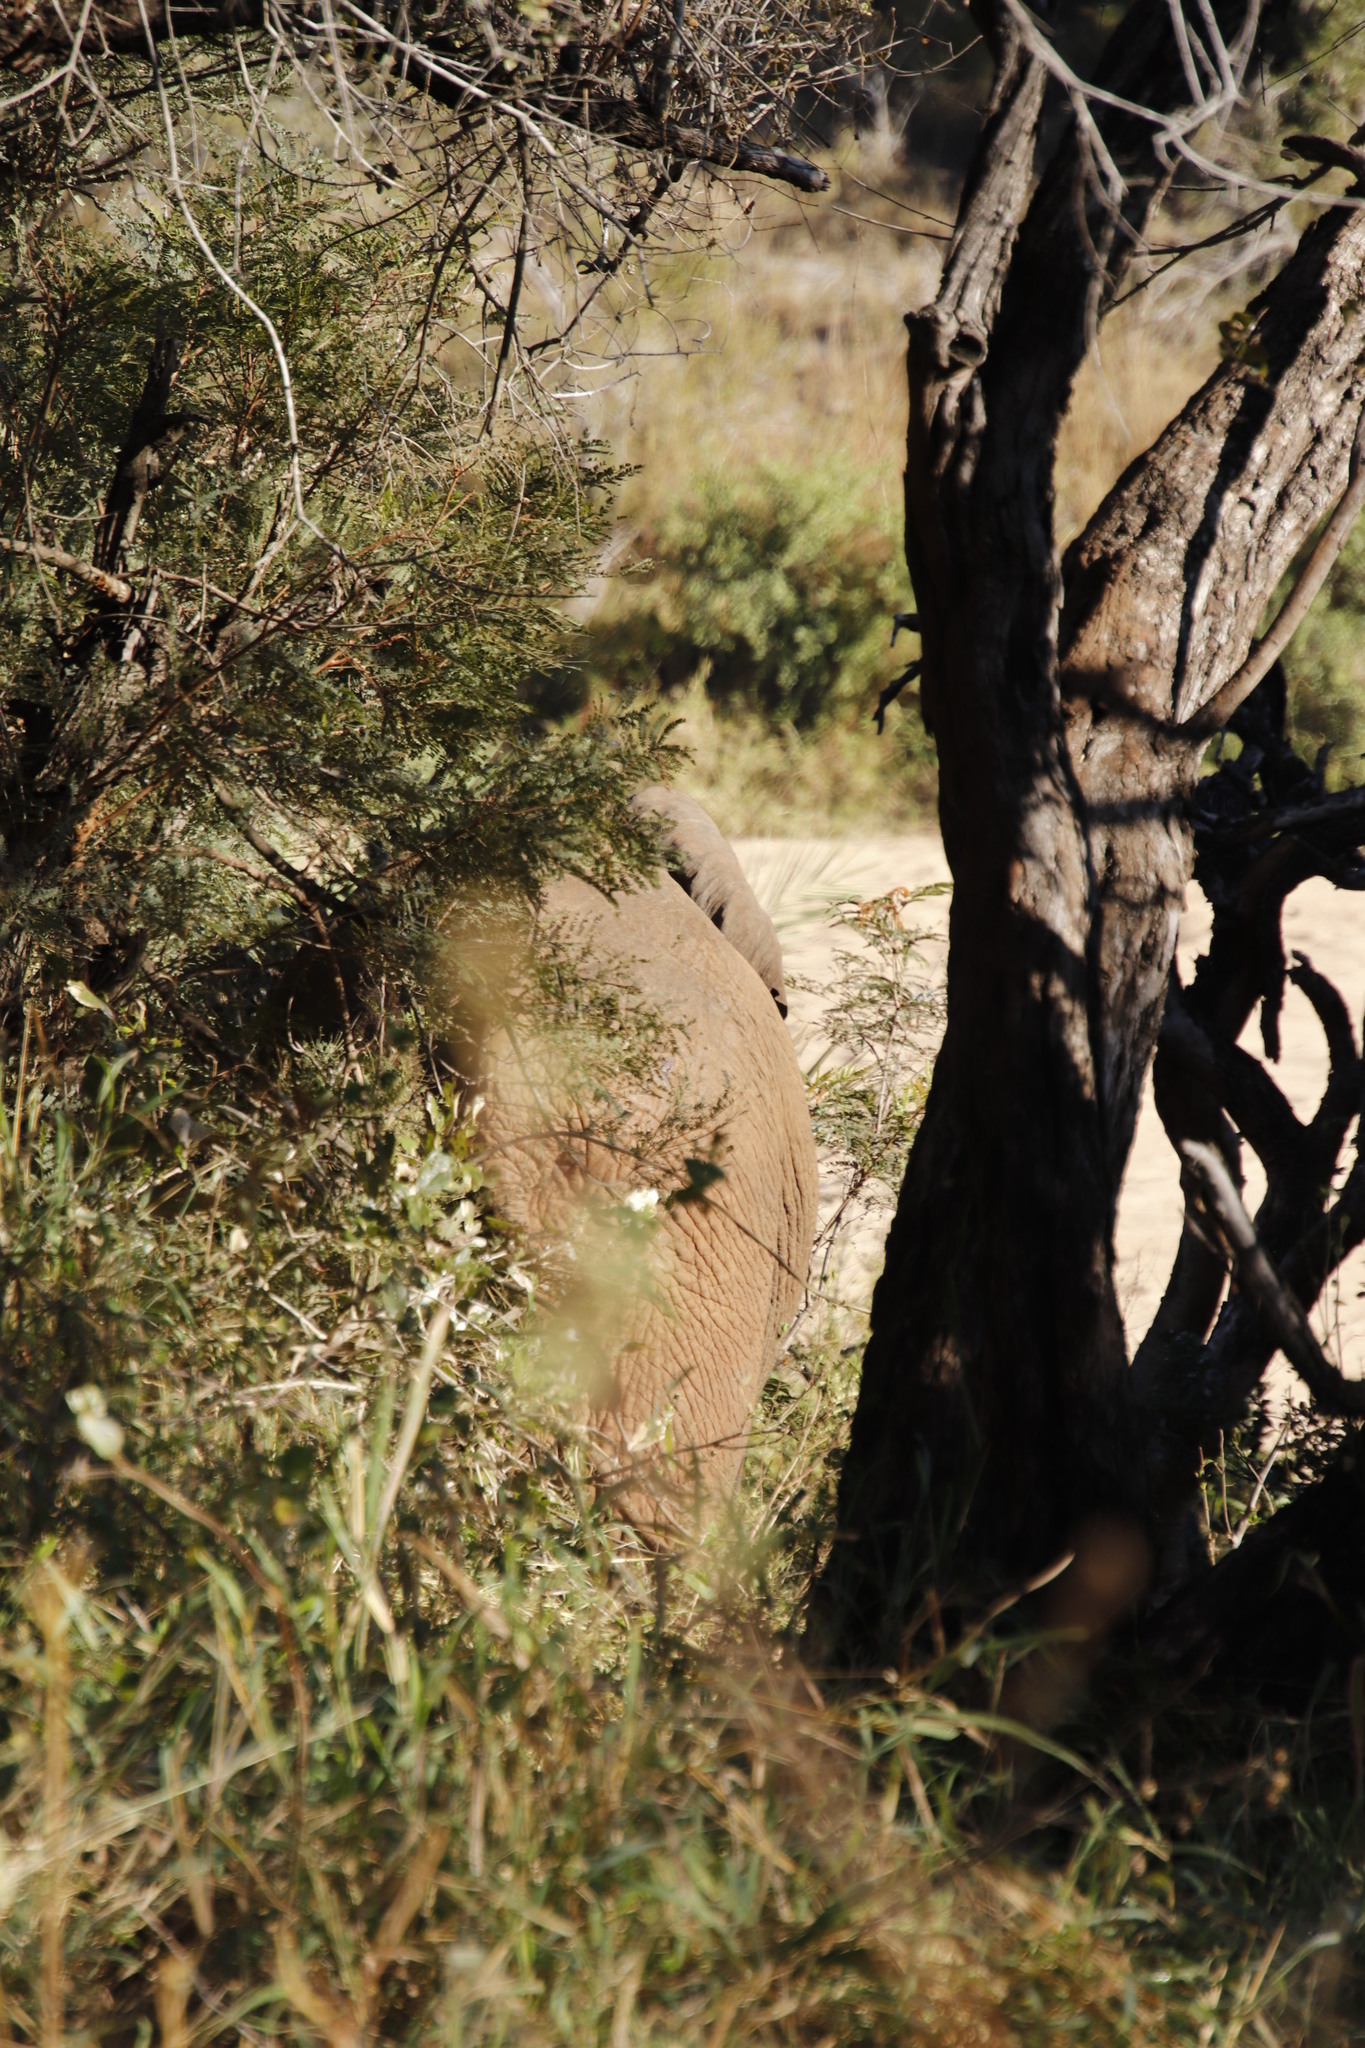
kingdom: Animalia
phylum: Chordata
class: Mammalia
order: Proboscidea
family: Elephantidae
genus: Loxodonta
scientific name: Loxodonta africana
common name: African elephant
